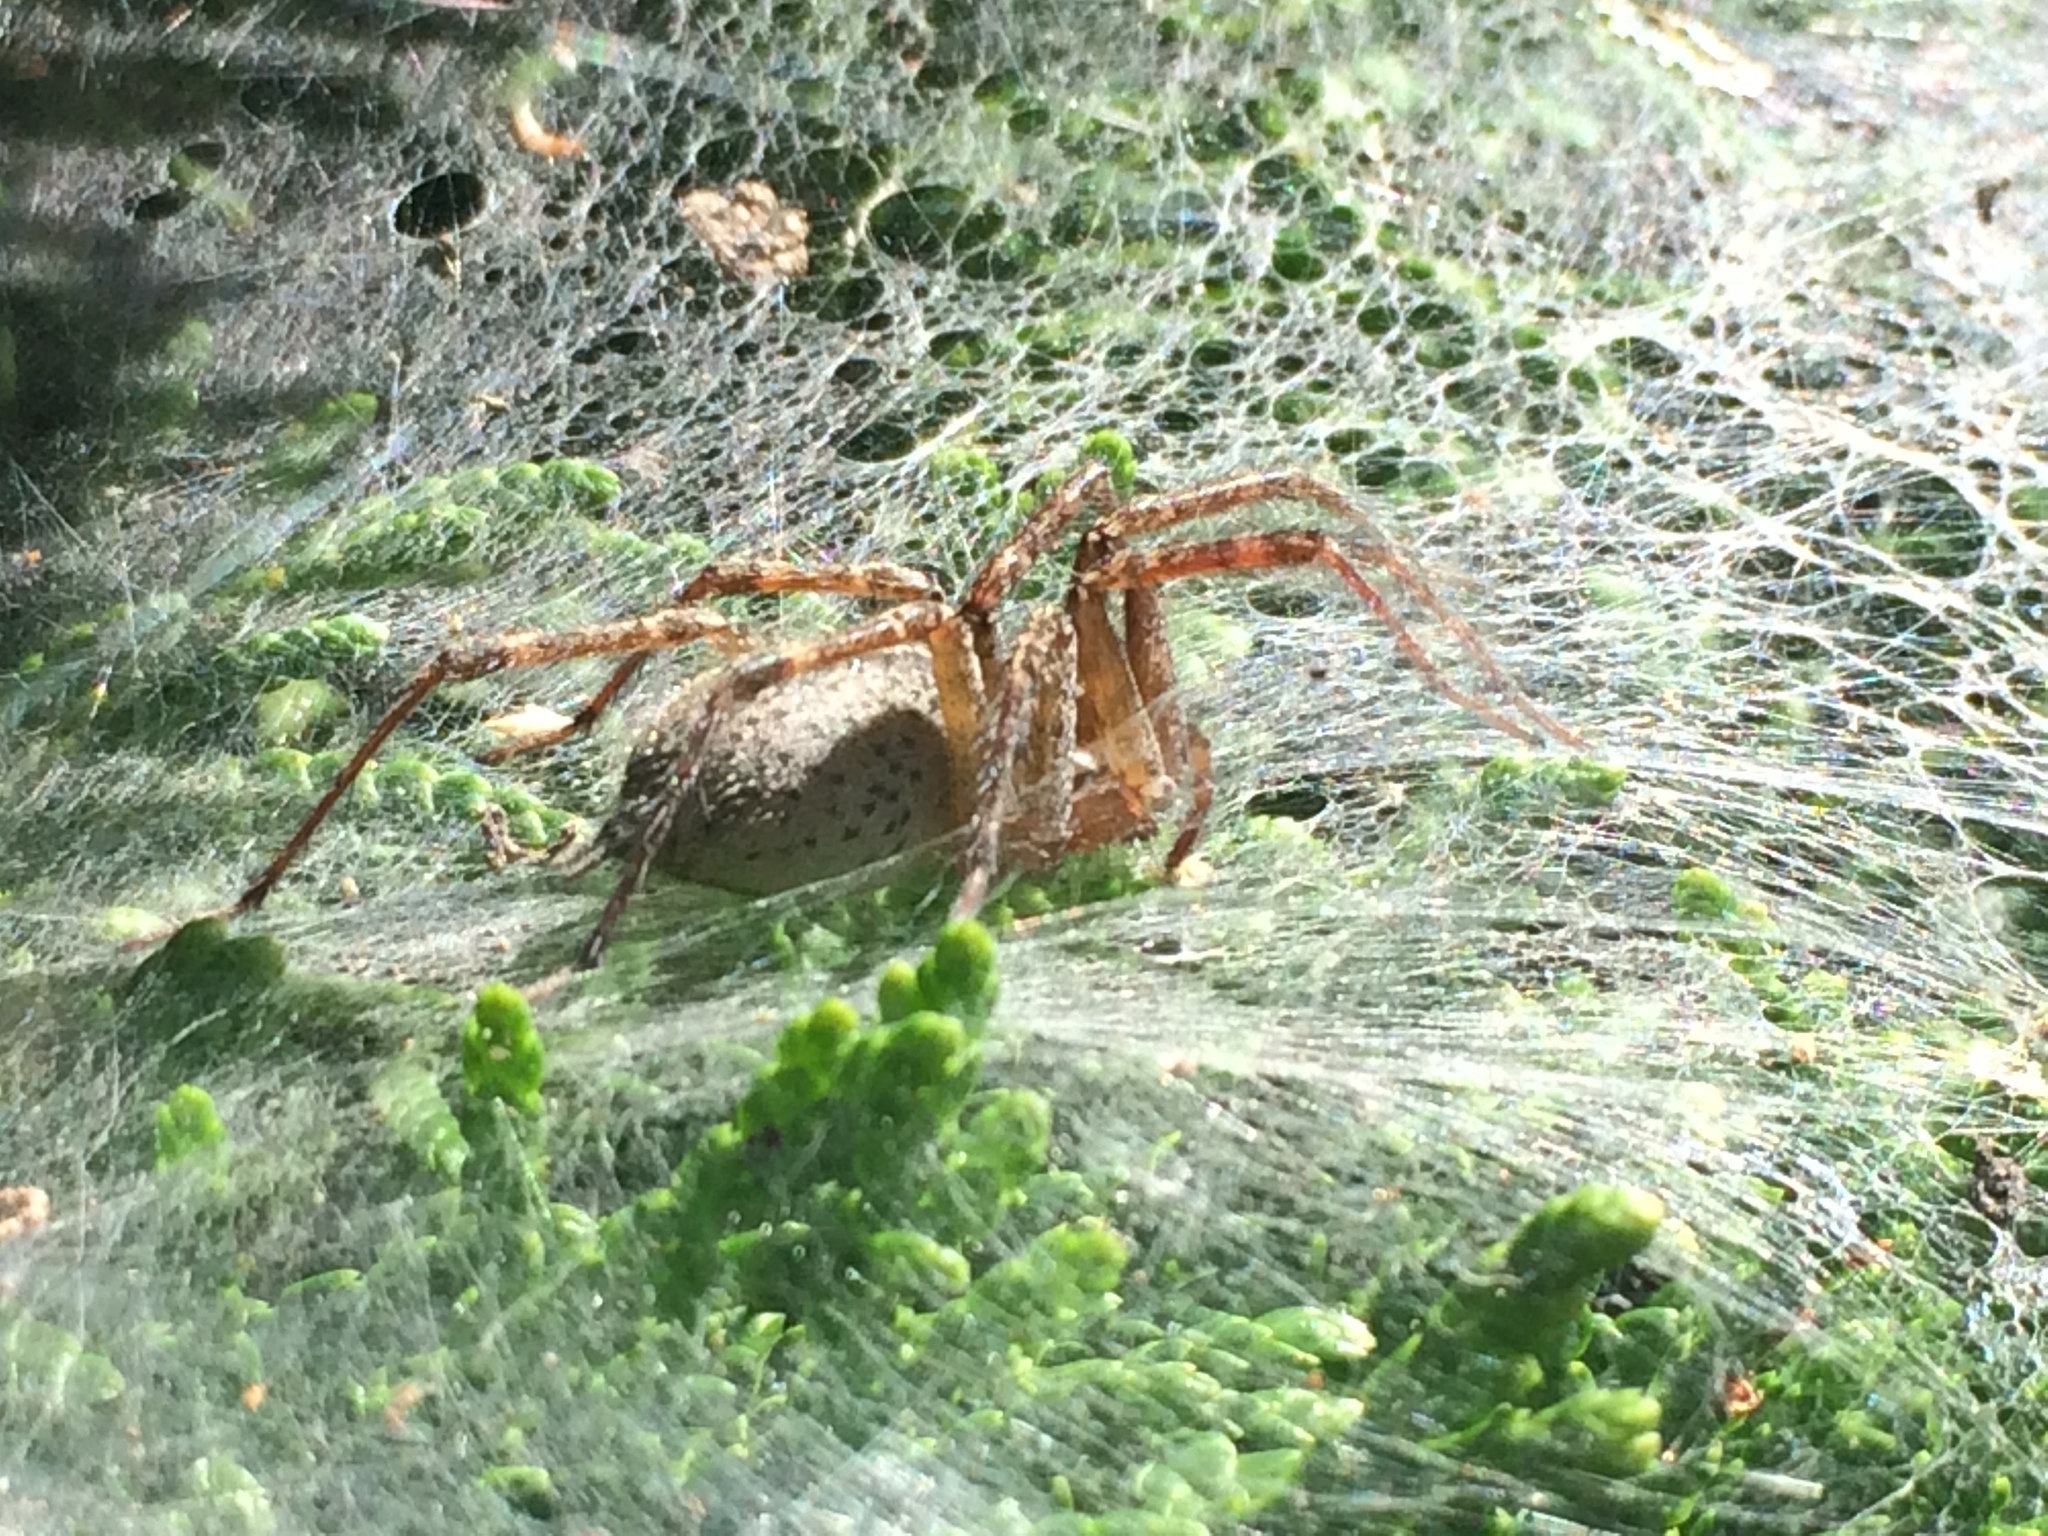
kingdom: Animalia
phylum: Arthropoda
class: Arachnida
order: Araneae
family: Agelenidae
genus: Agelenopsis
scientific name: Agelenopsis
